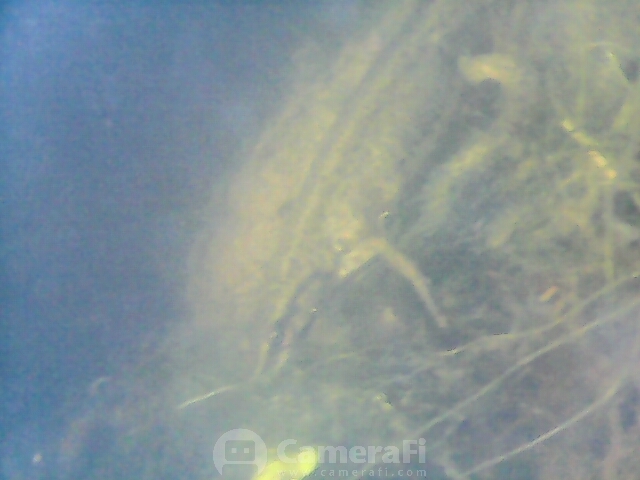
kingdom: Animalia
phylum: Chordata
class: Amphibia
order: Caudata
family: Salamandridae
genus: Lissotriton
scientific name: Lissotriton vulgaris
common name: Smooth newt
